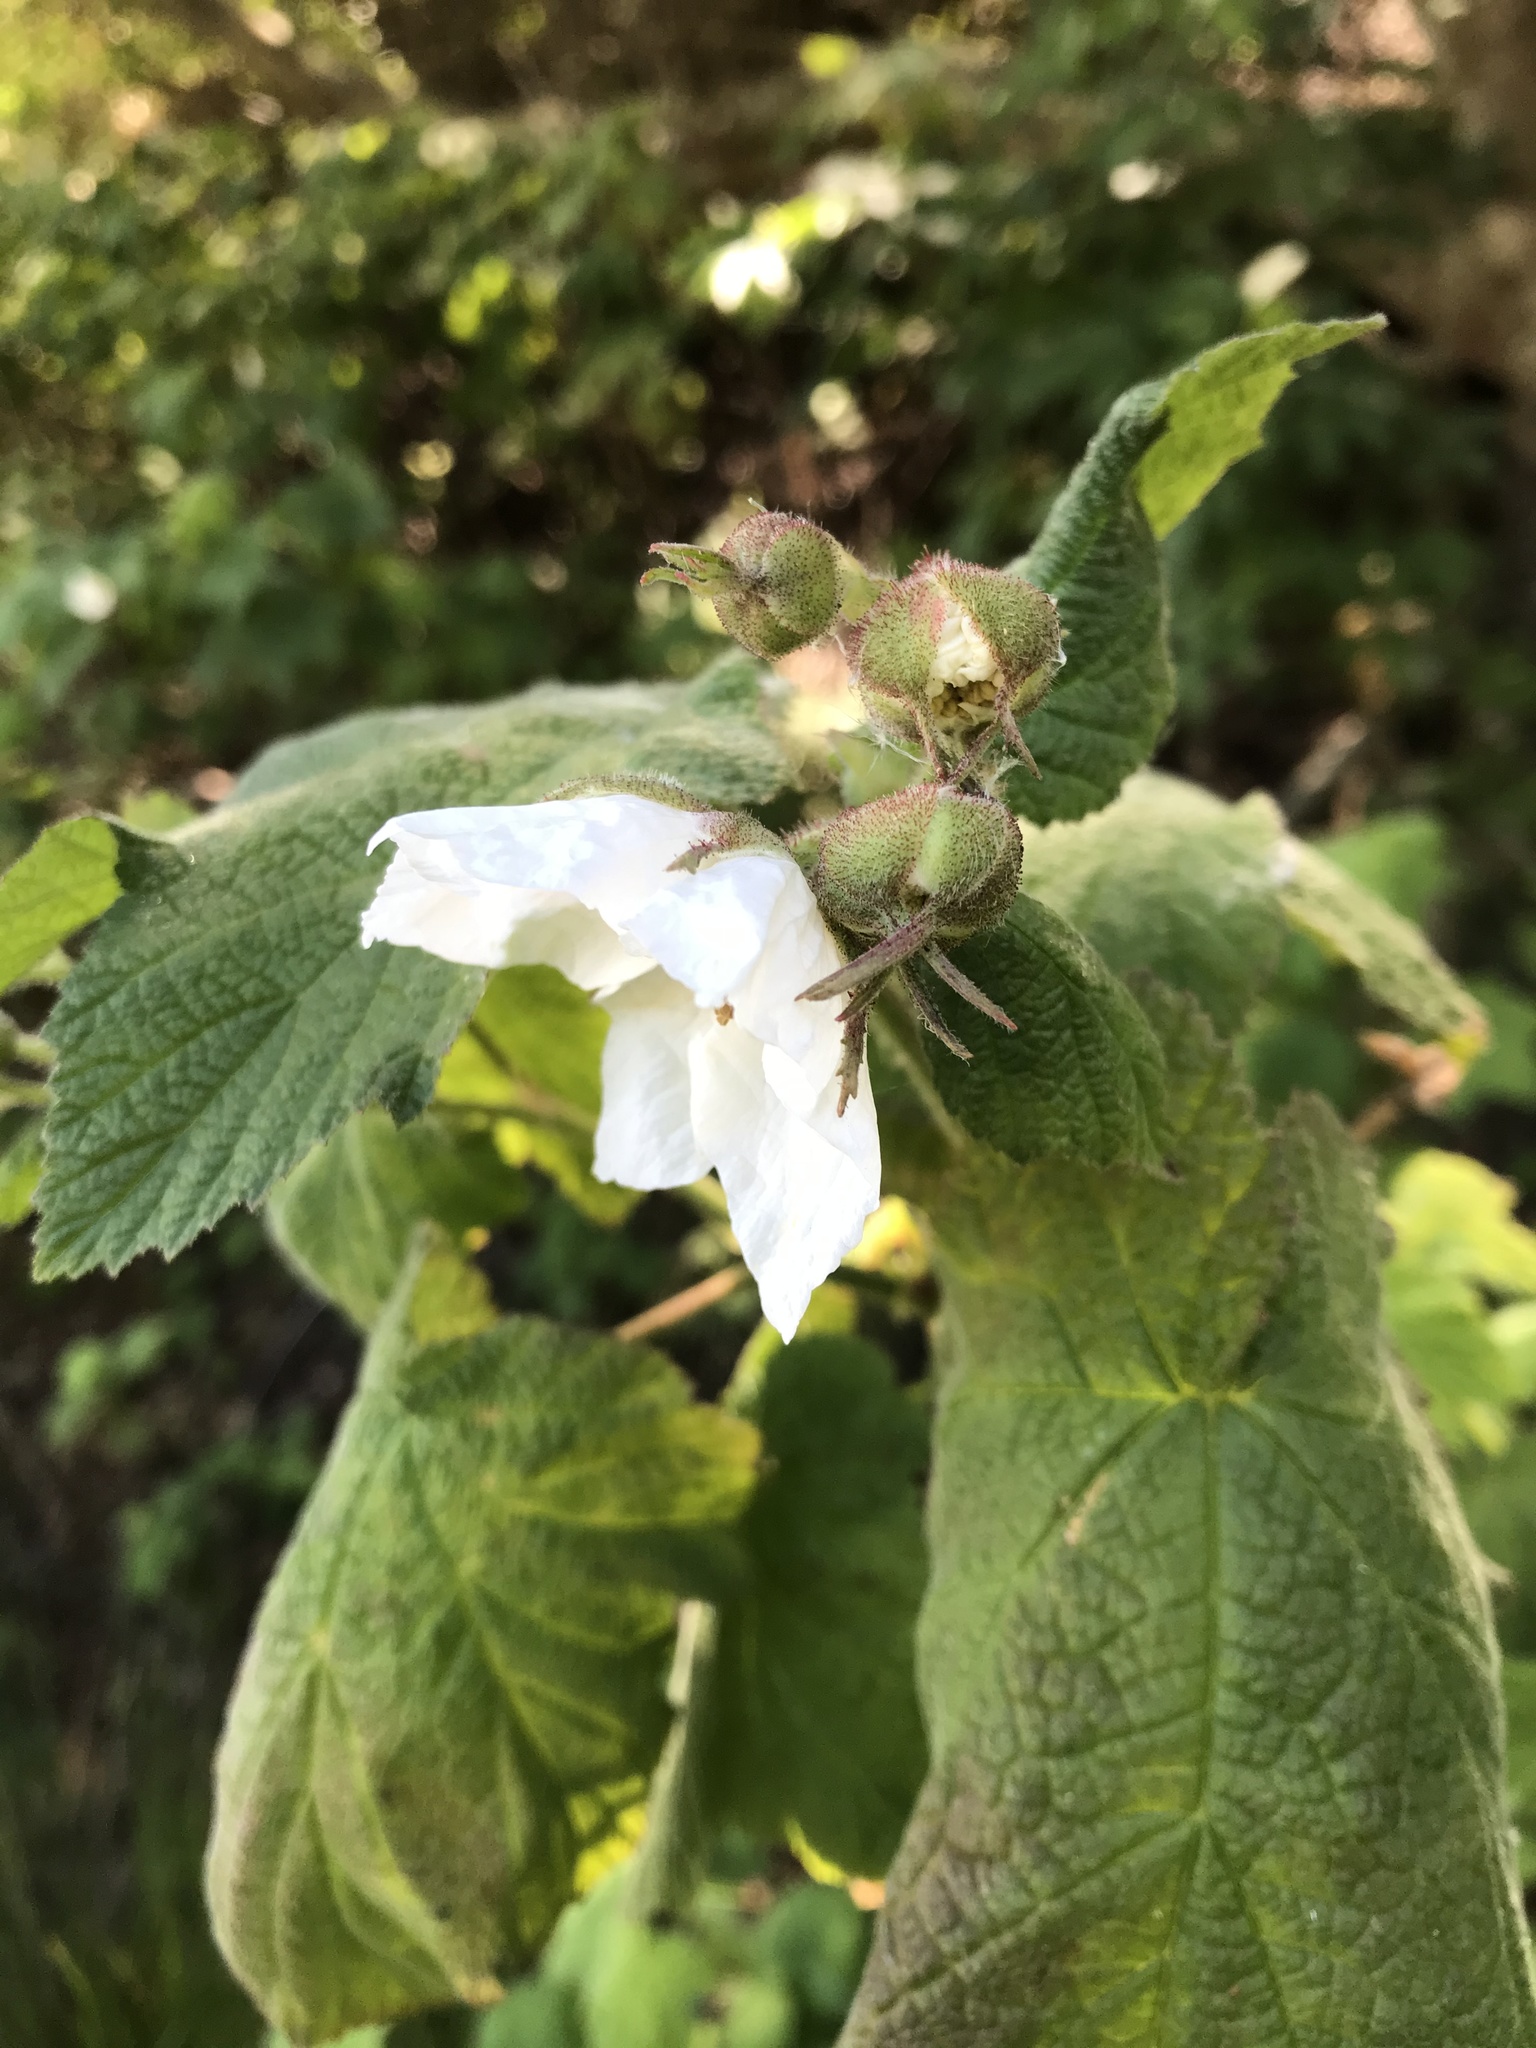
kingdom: Plantae
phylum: Tracheophyta
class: Magnoliopsida
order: Rosales
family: Rosaceae
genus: Rubus
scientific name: Rubus parviflorus
